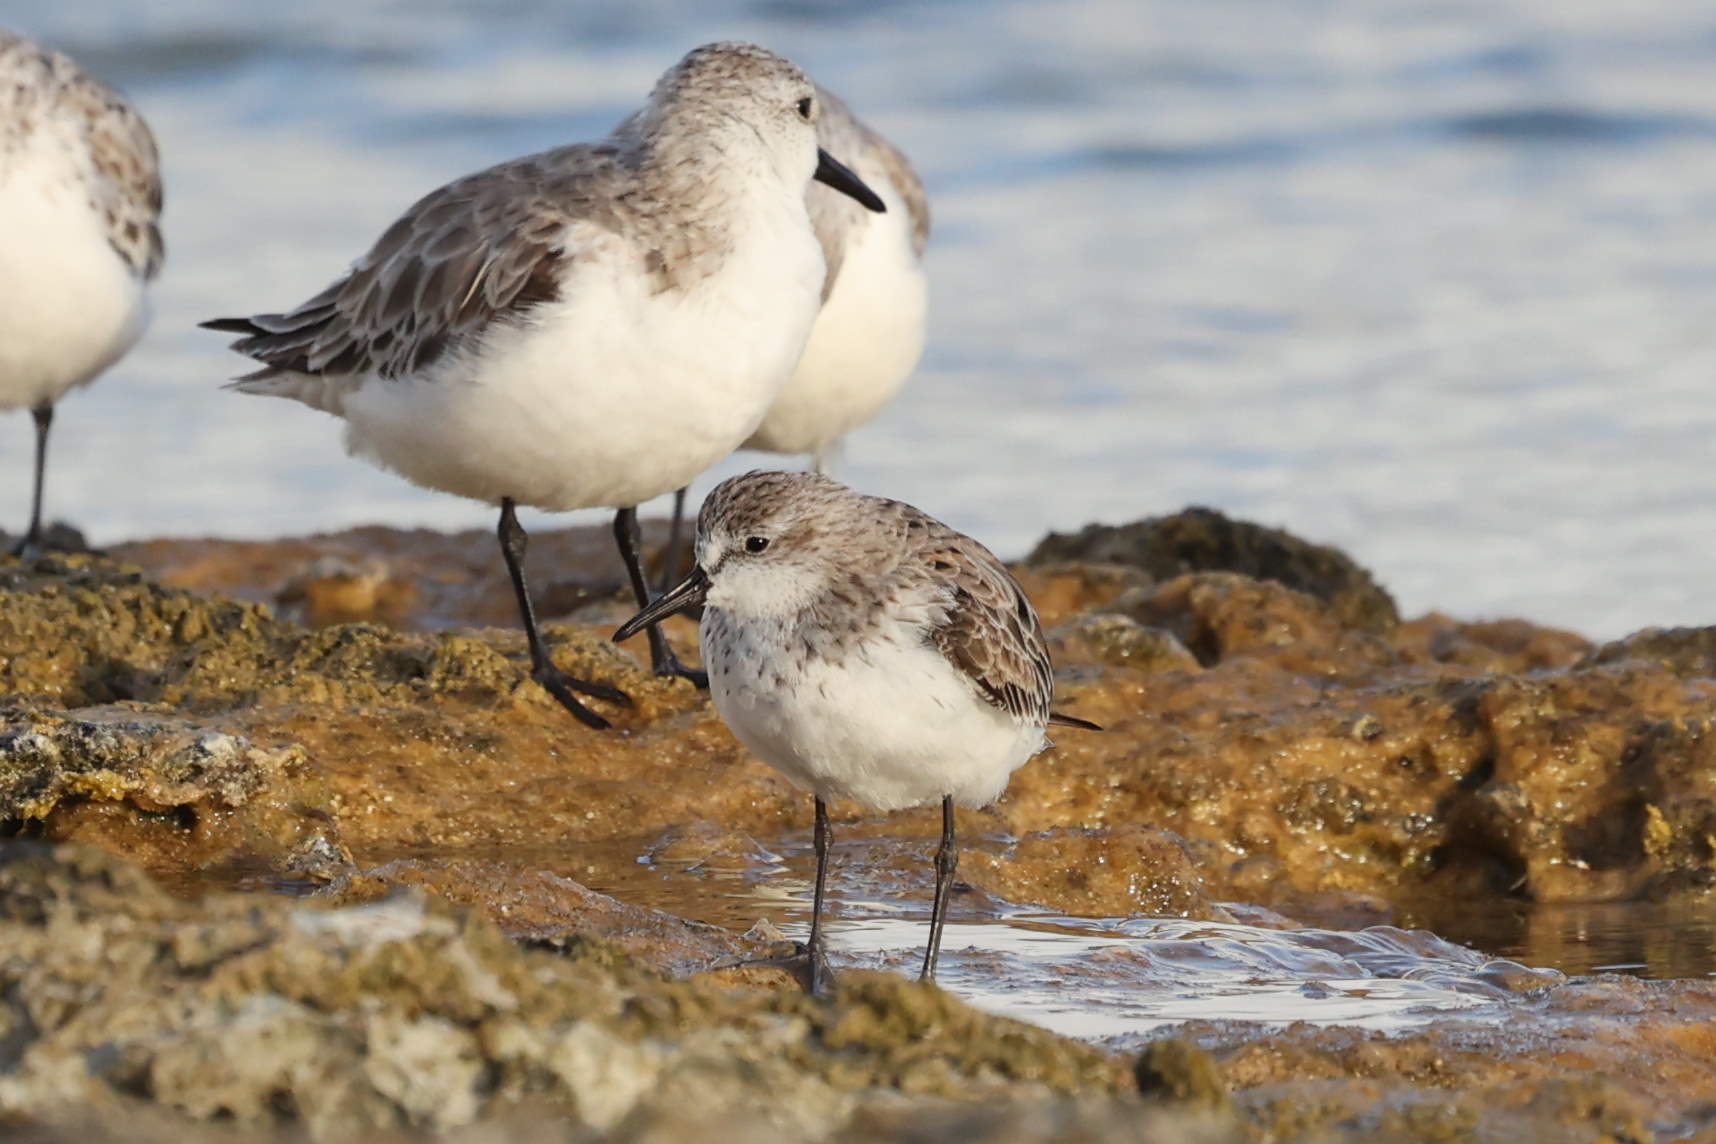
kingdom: Animalia
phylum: Chordata
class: Aves
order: Charadriiformes
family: Scolopacidae
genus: Calidris
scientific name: Calidris pusilla
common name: Semipalmated sandpiper
